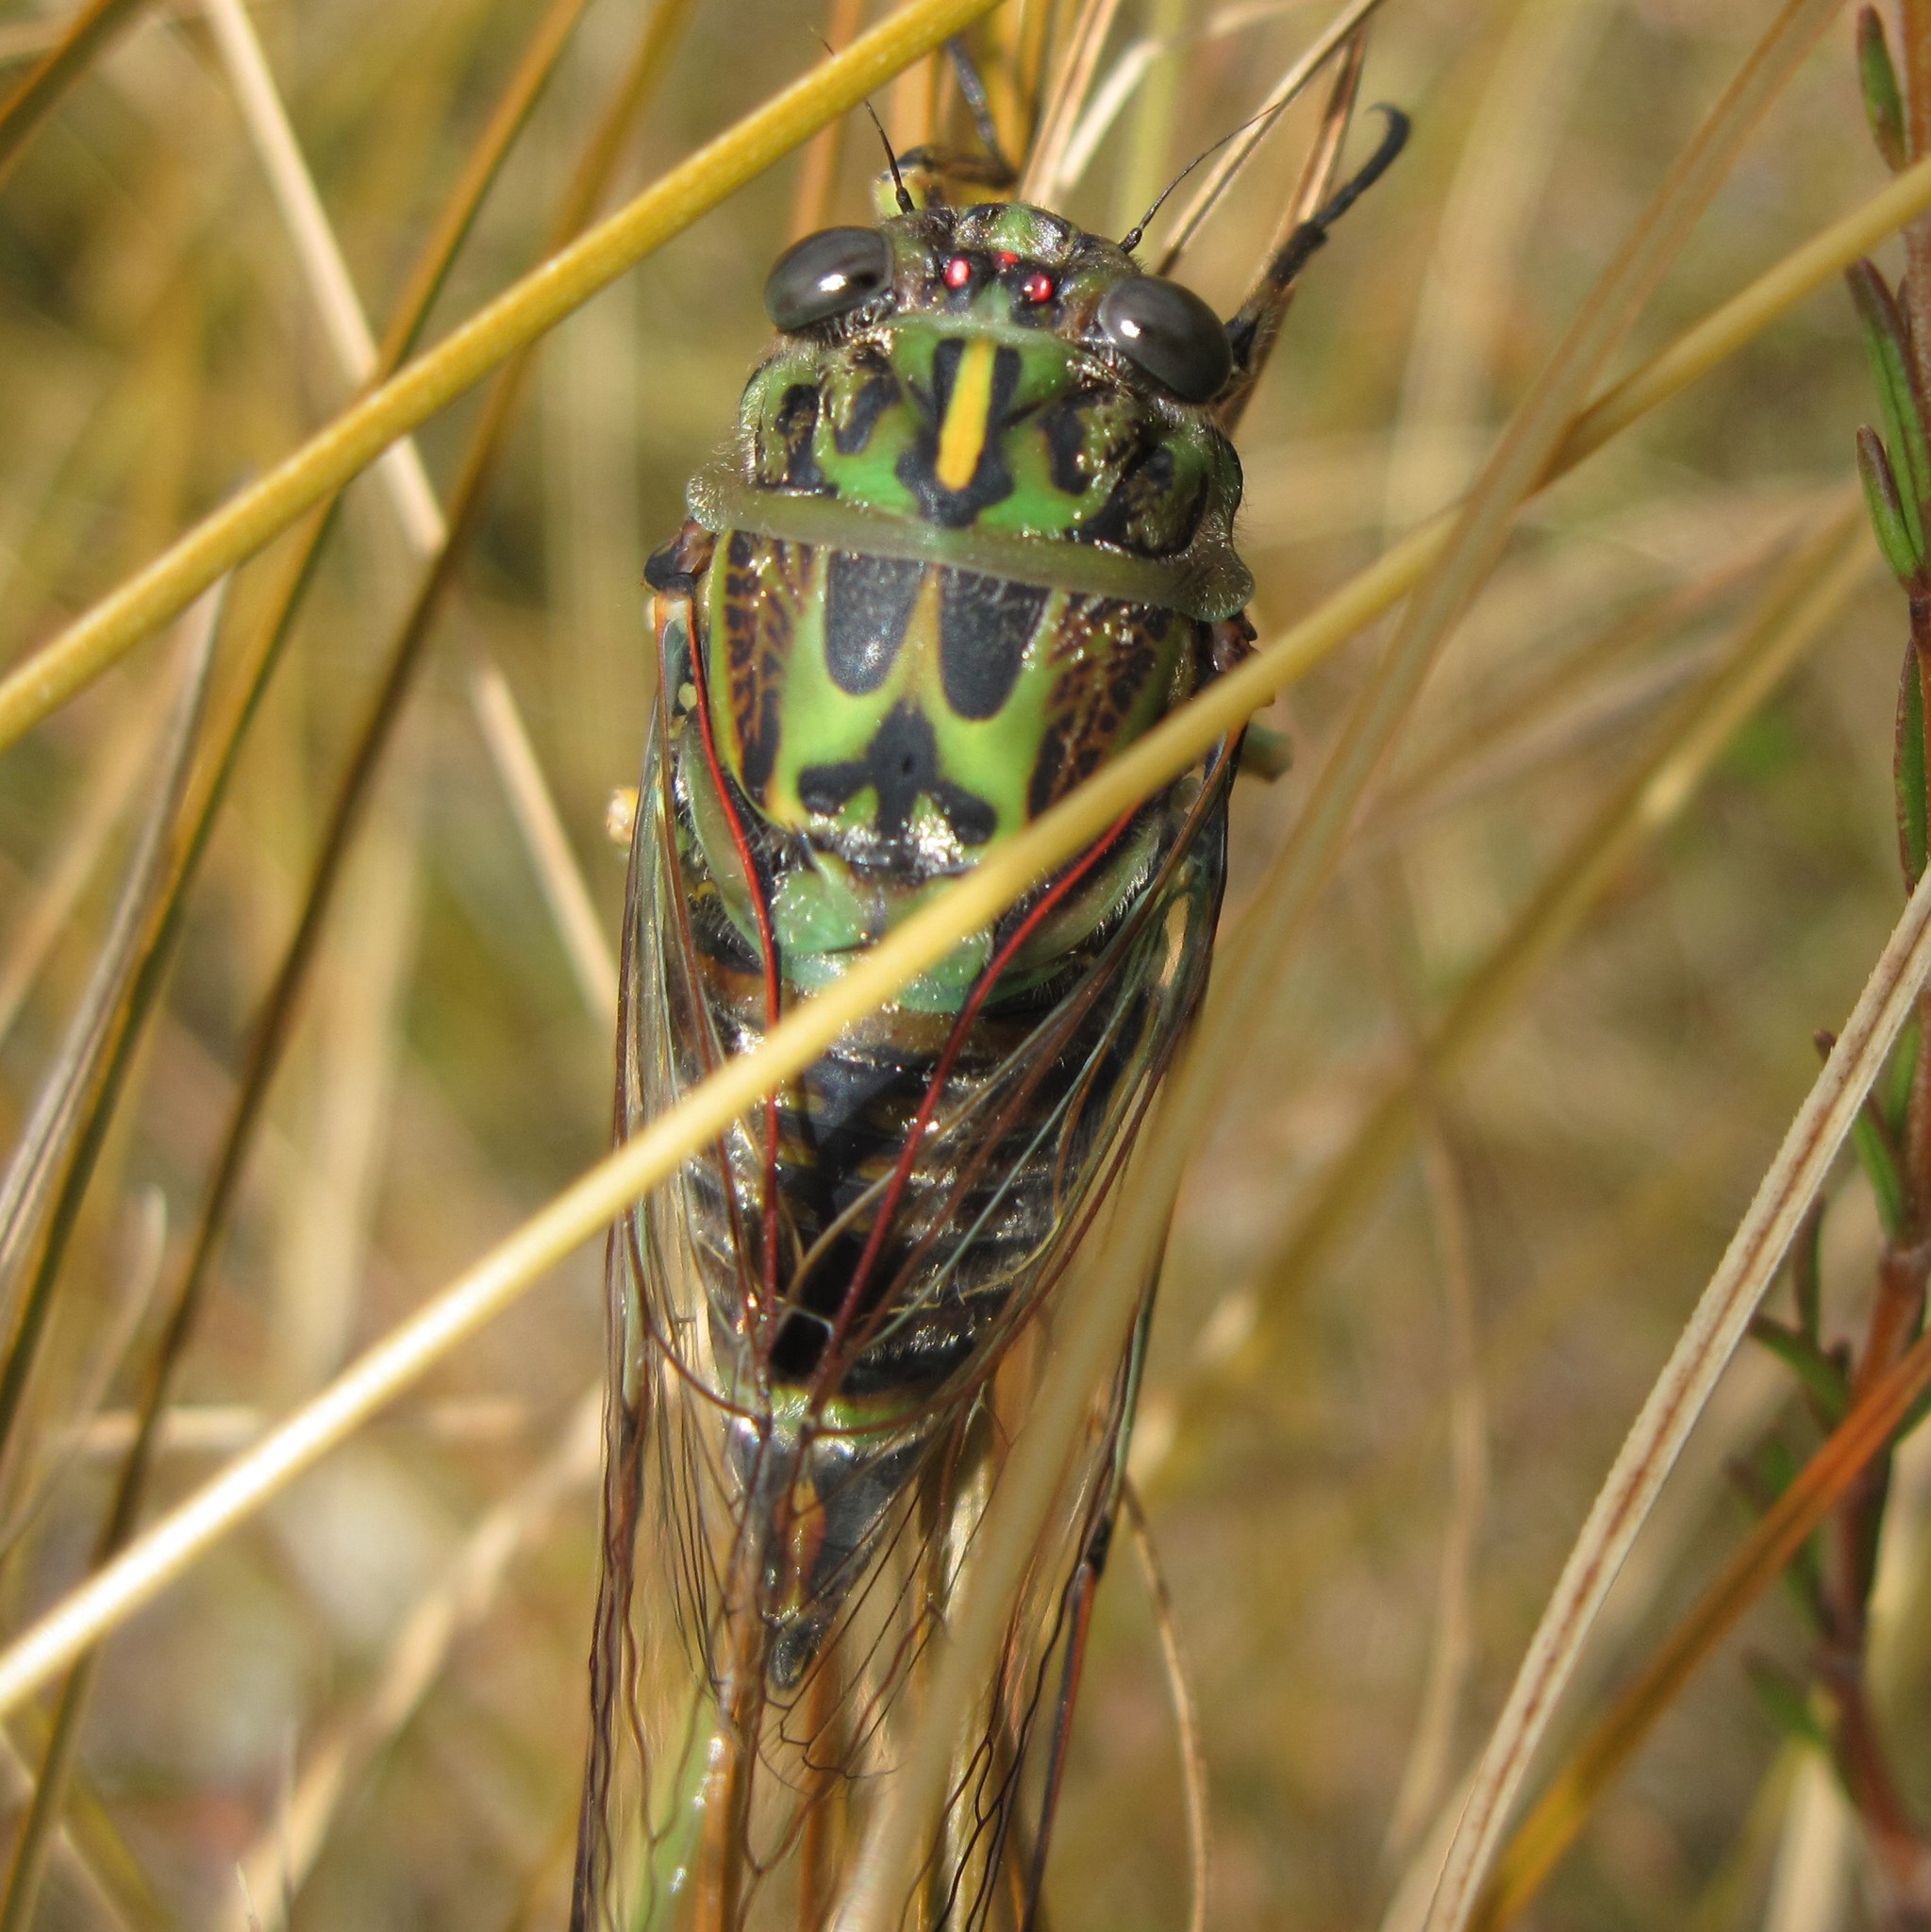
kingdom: Animalia
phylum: Arthropoda
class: Insecta
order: Hemiptera
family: Cicadidae
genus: Amphipsalta
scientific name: Amphipsalta zelandica
